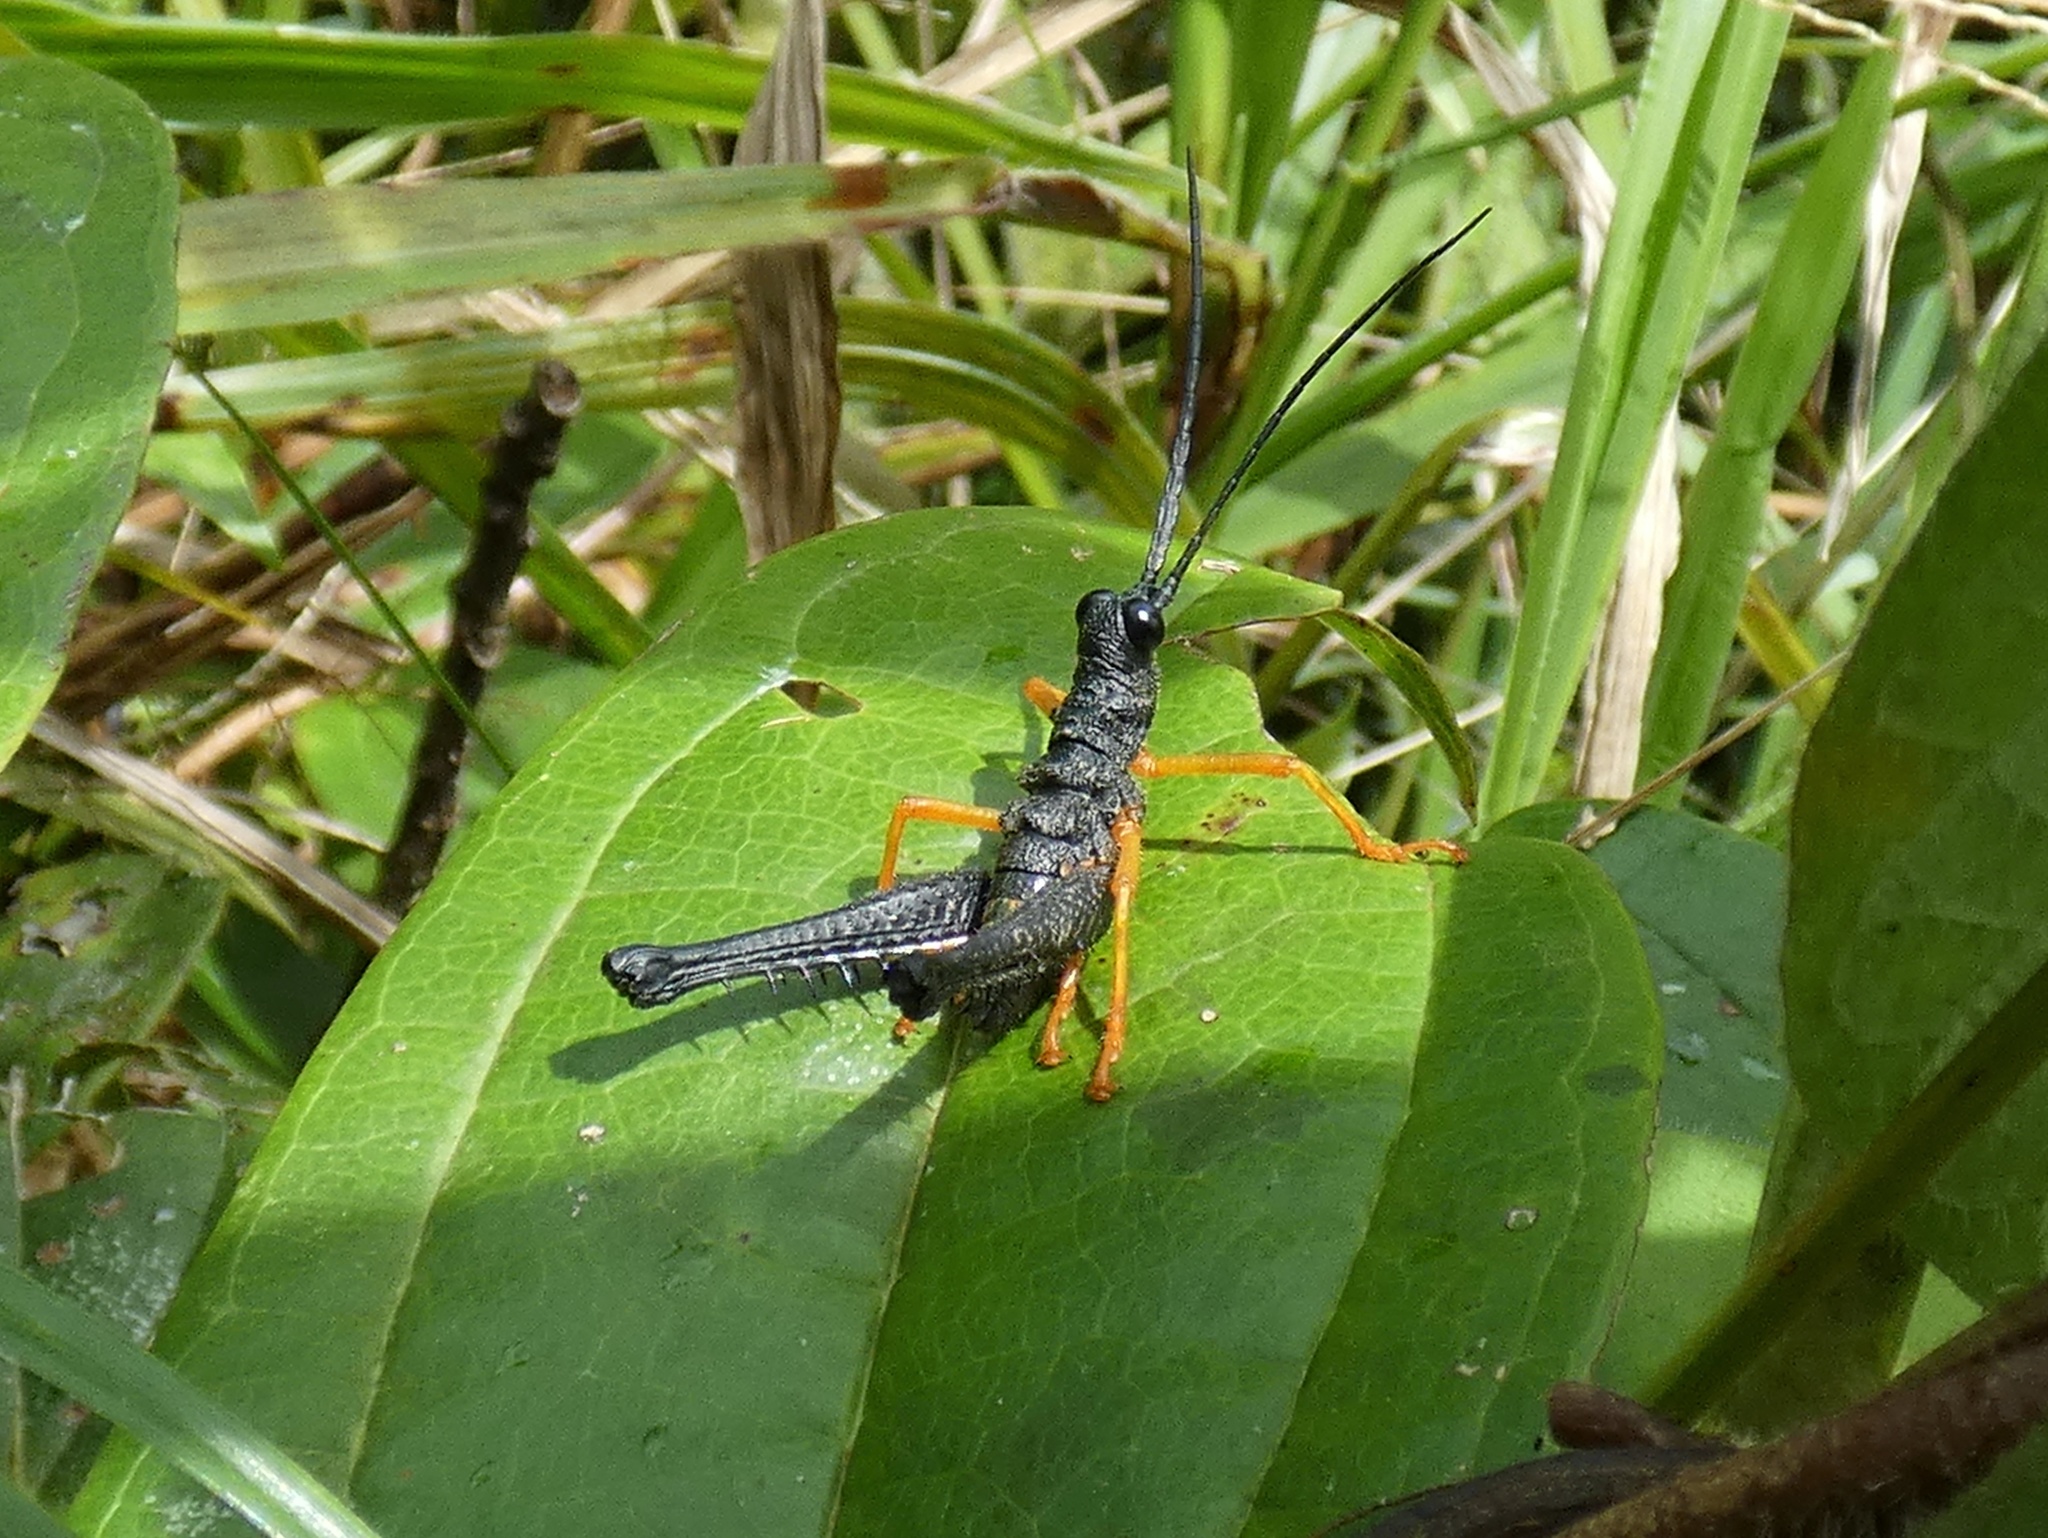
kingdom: Animalia
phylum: Arthropoda
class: Insecta
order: Orthoptera
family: Acrididae
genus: Piezops
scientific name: Piezops ensicornis
